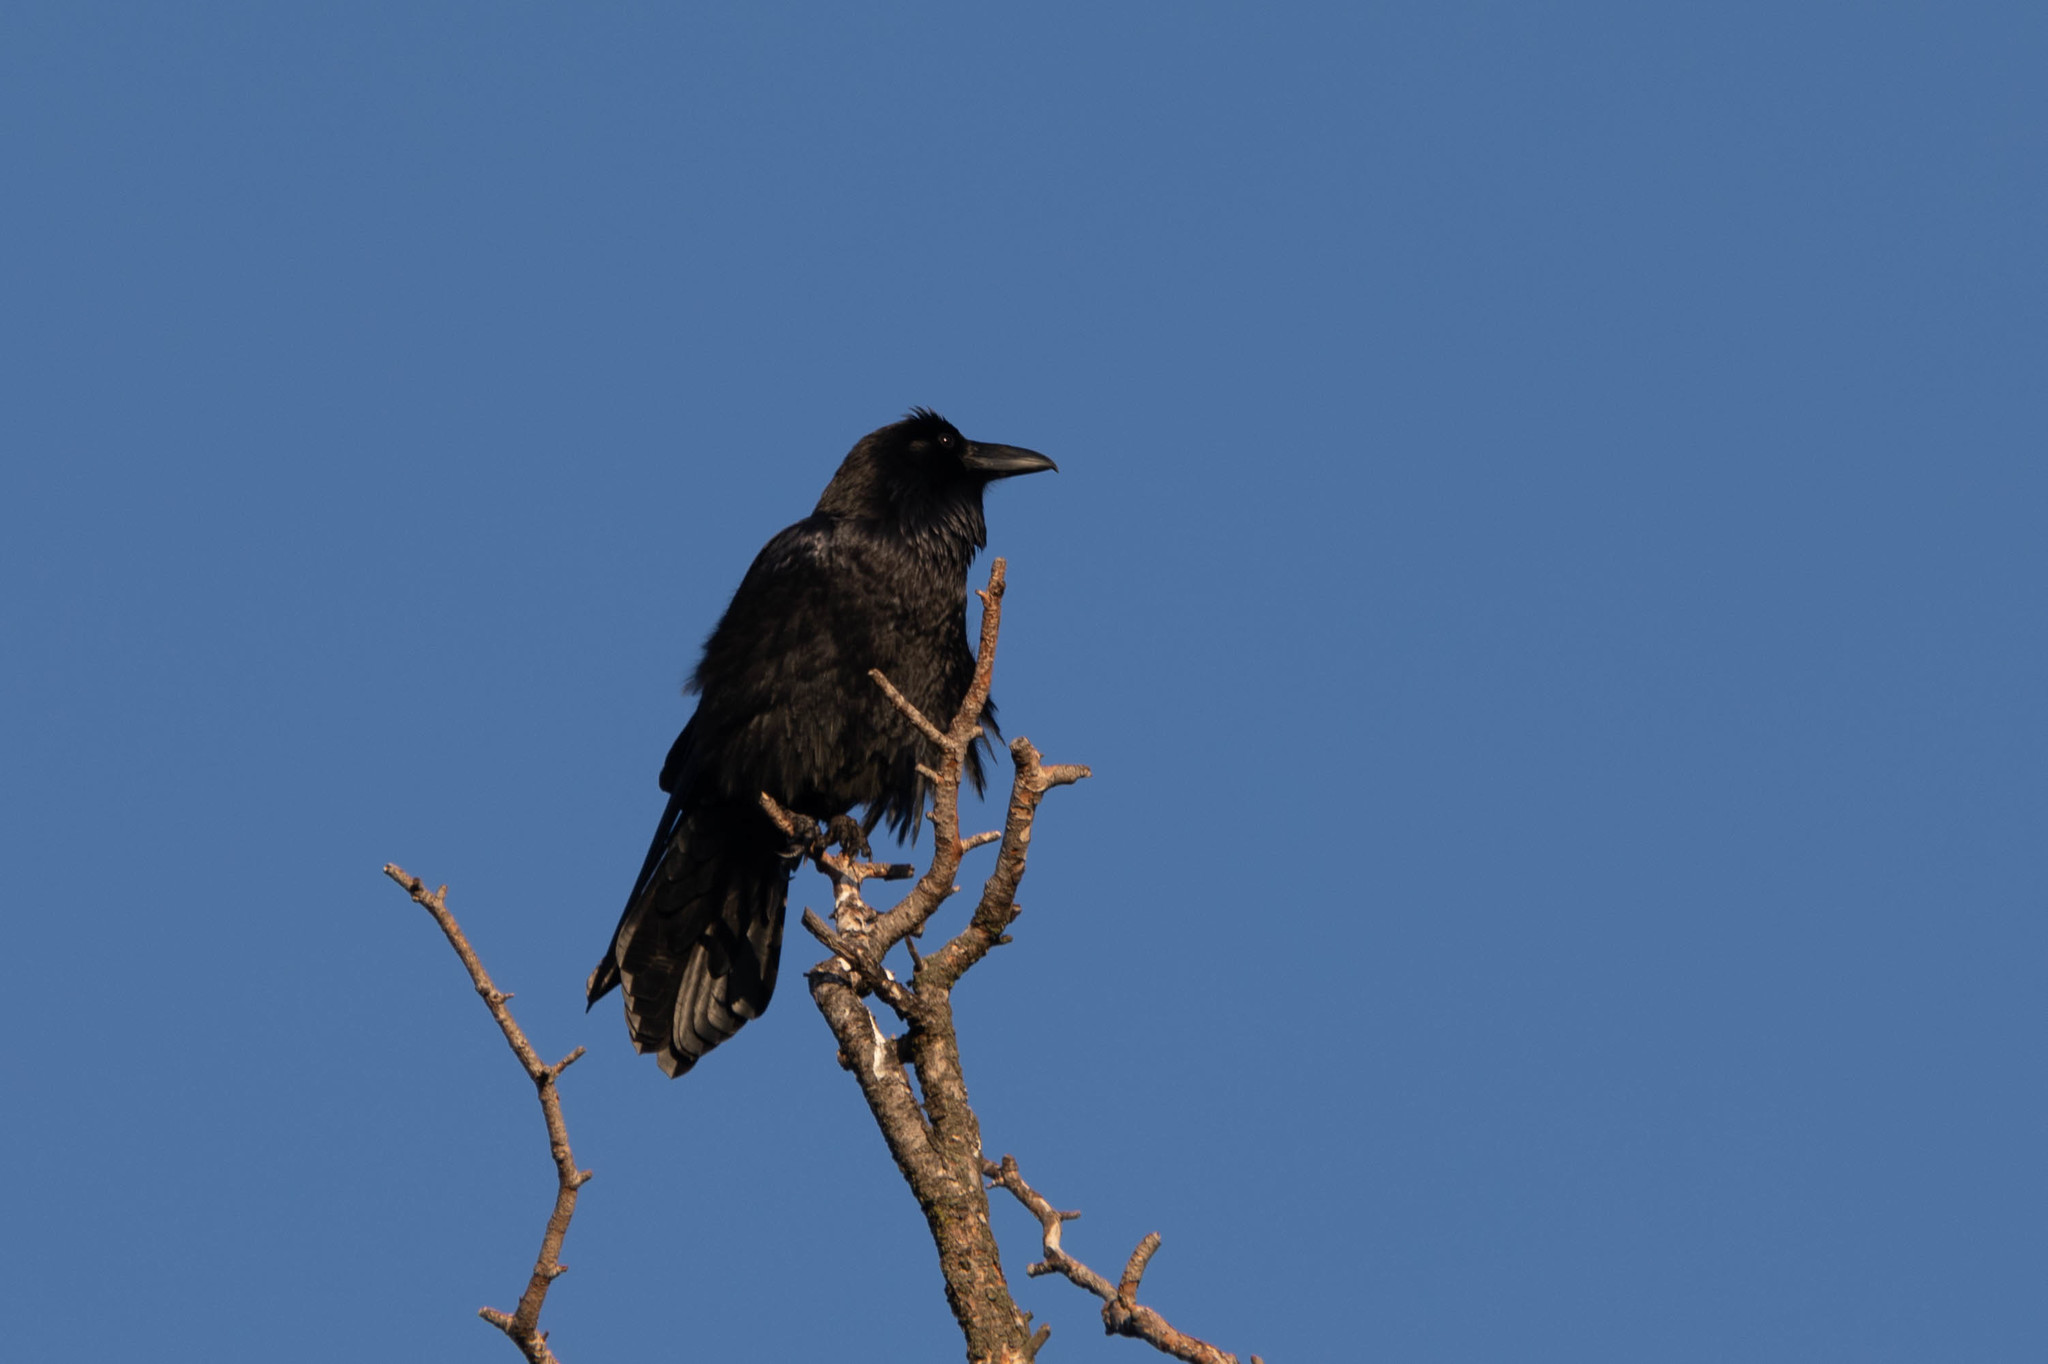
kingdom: Animalia
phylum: Chordata
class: Aves
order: Passeriformes
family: Corvidae
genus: Corvus
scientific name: Corvus corax
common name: Common raven
